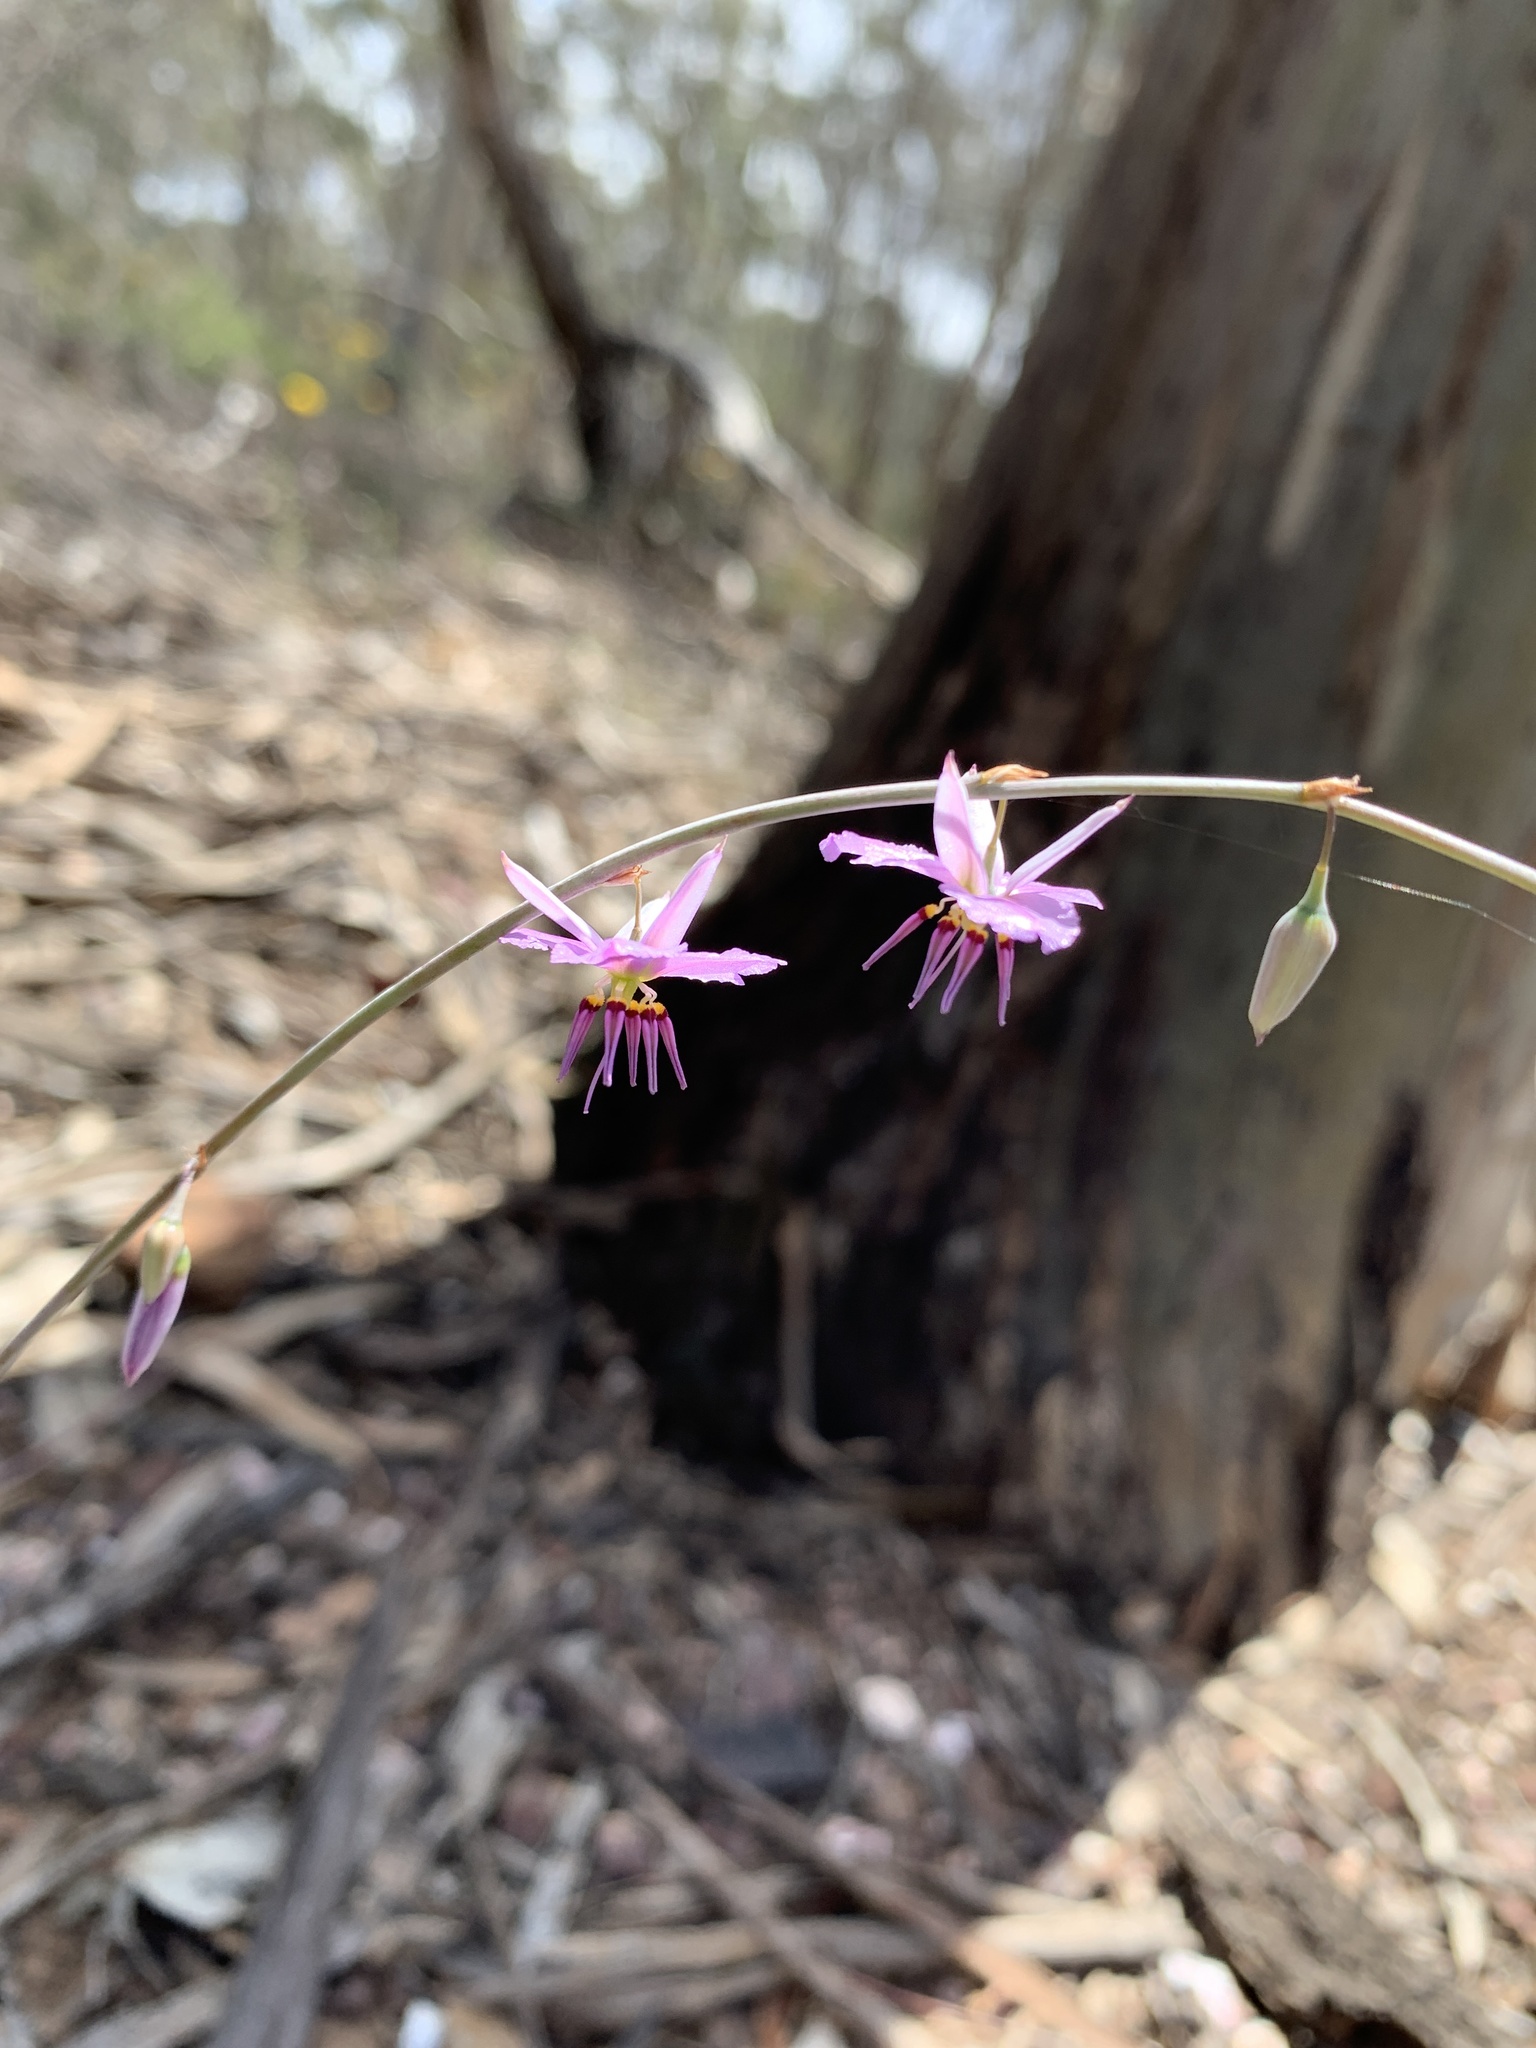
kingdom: Plantae
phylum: Tracheophyta
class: Liliopsida
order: Asparagales
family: Asparagaceae
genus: Dichopogon
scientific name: Dichopogon fimbriatus
